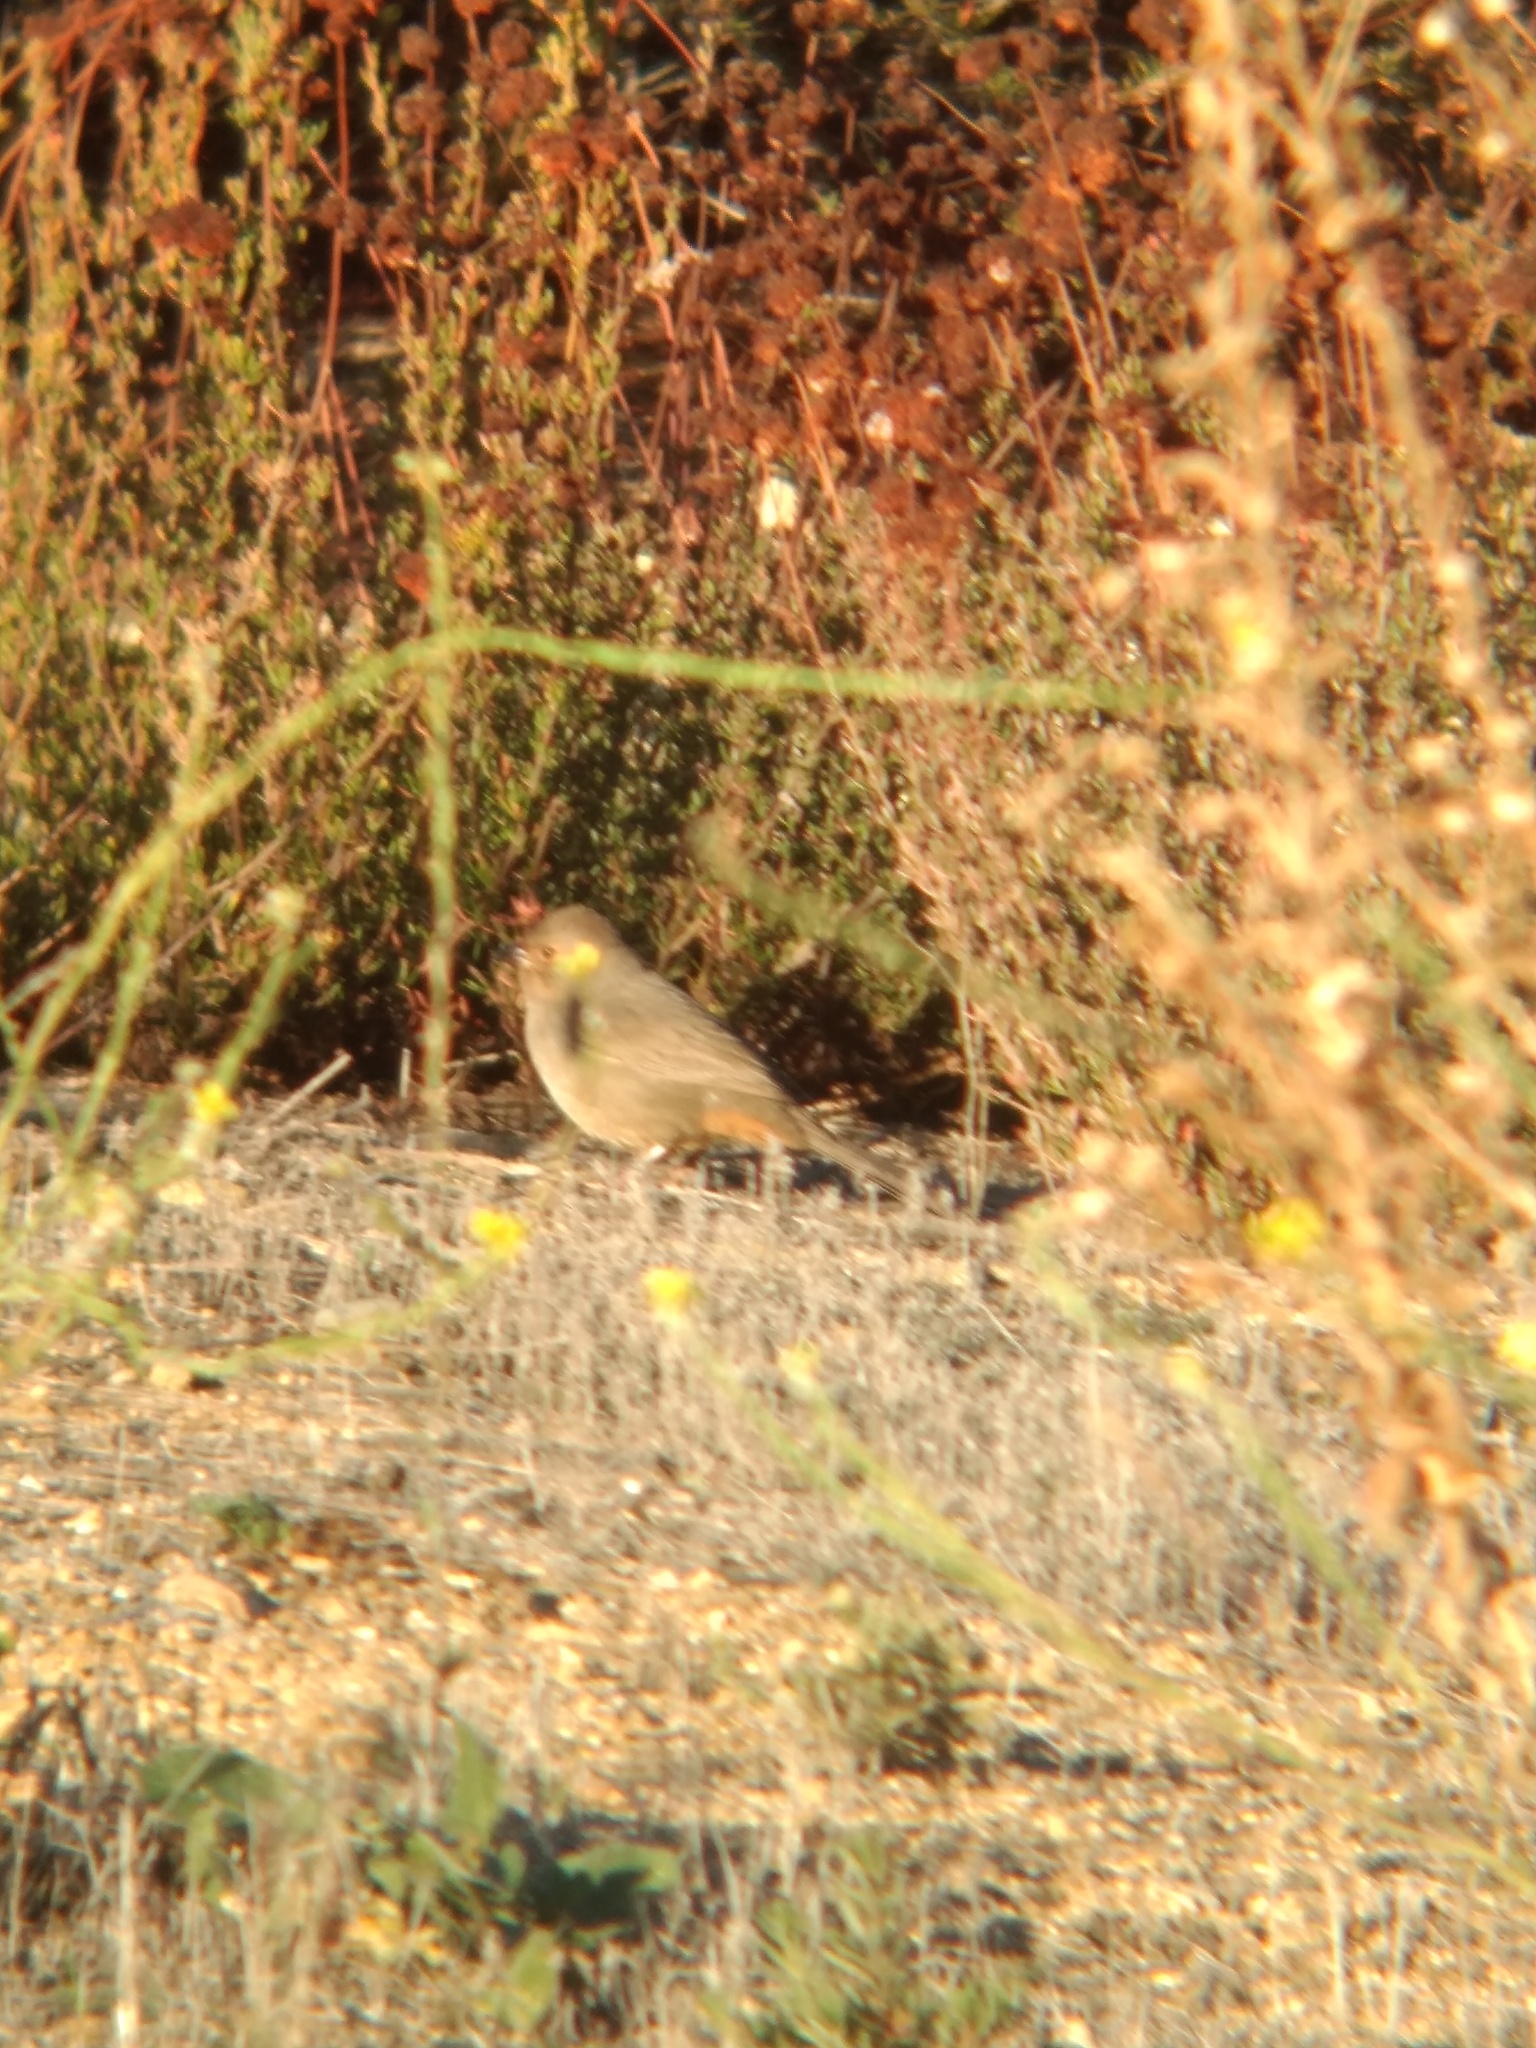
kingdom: Animalia
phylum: Chordata
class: Aves
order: Passeriformes
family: Passerellidae
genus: Melozone
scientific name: Melozone crissalis
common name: California towhee
